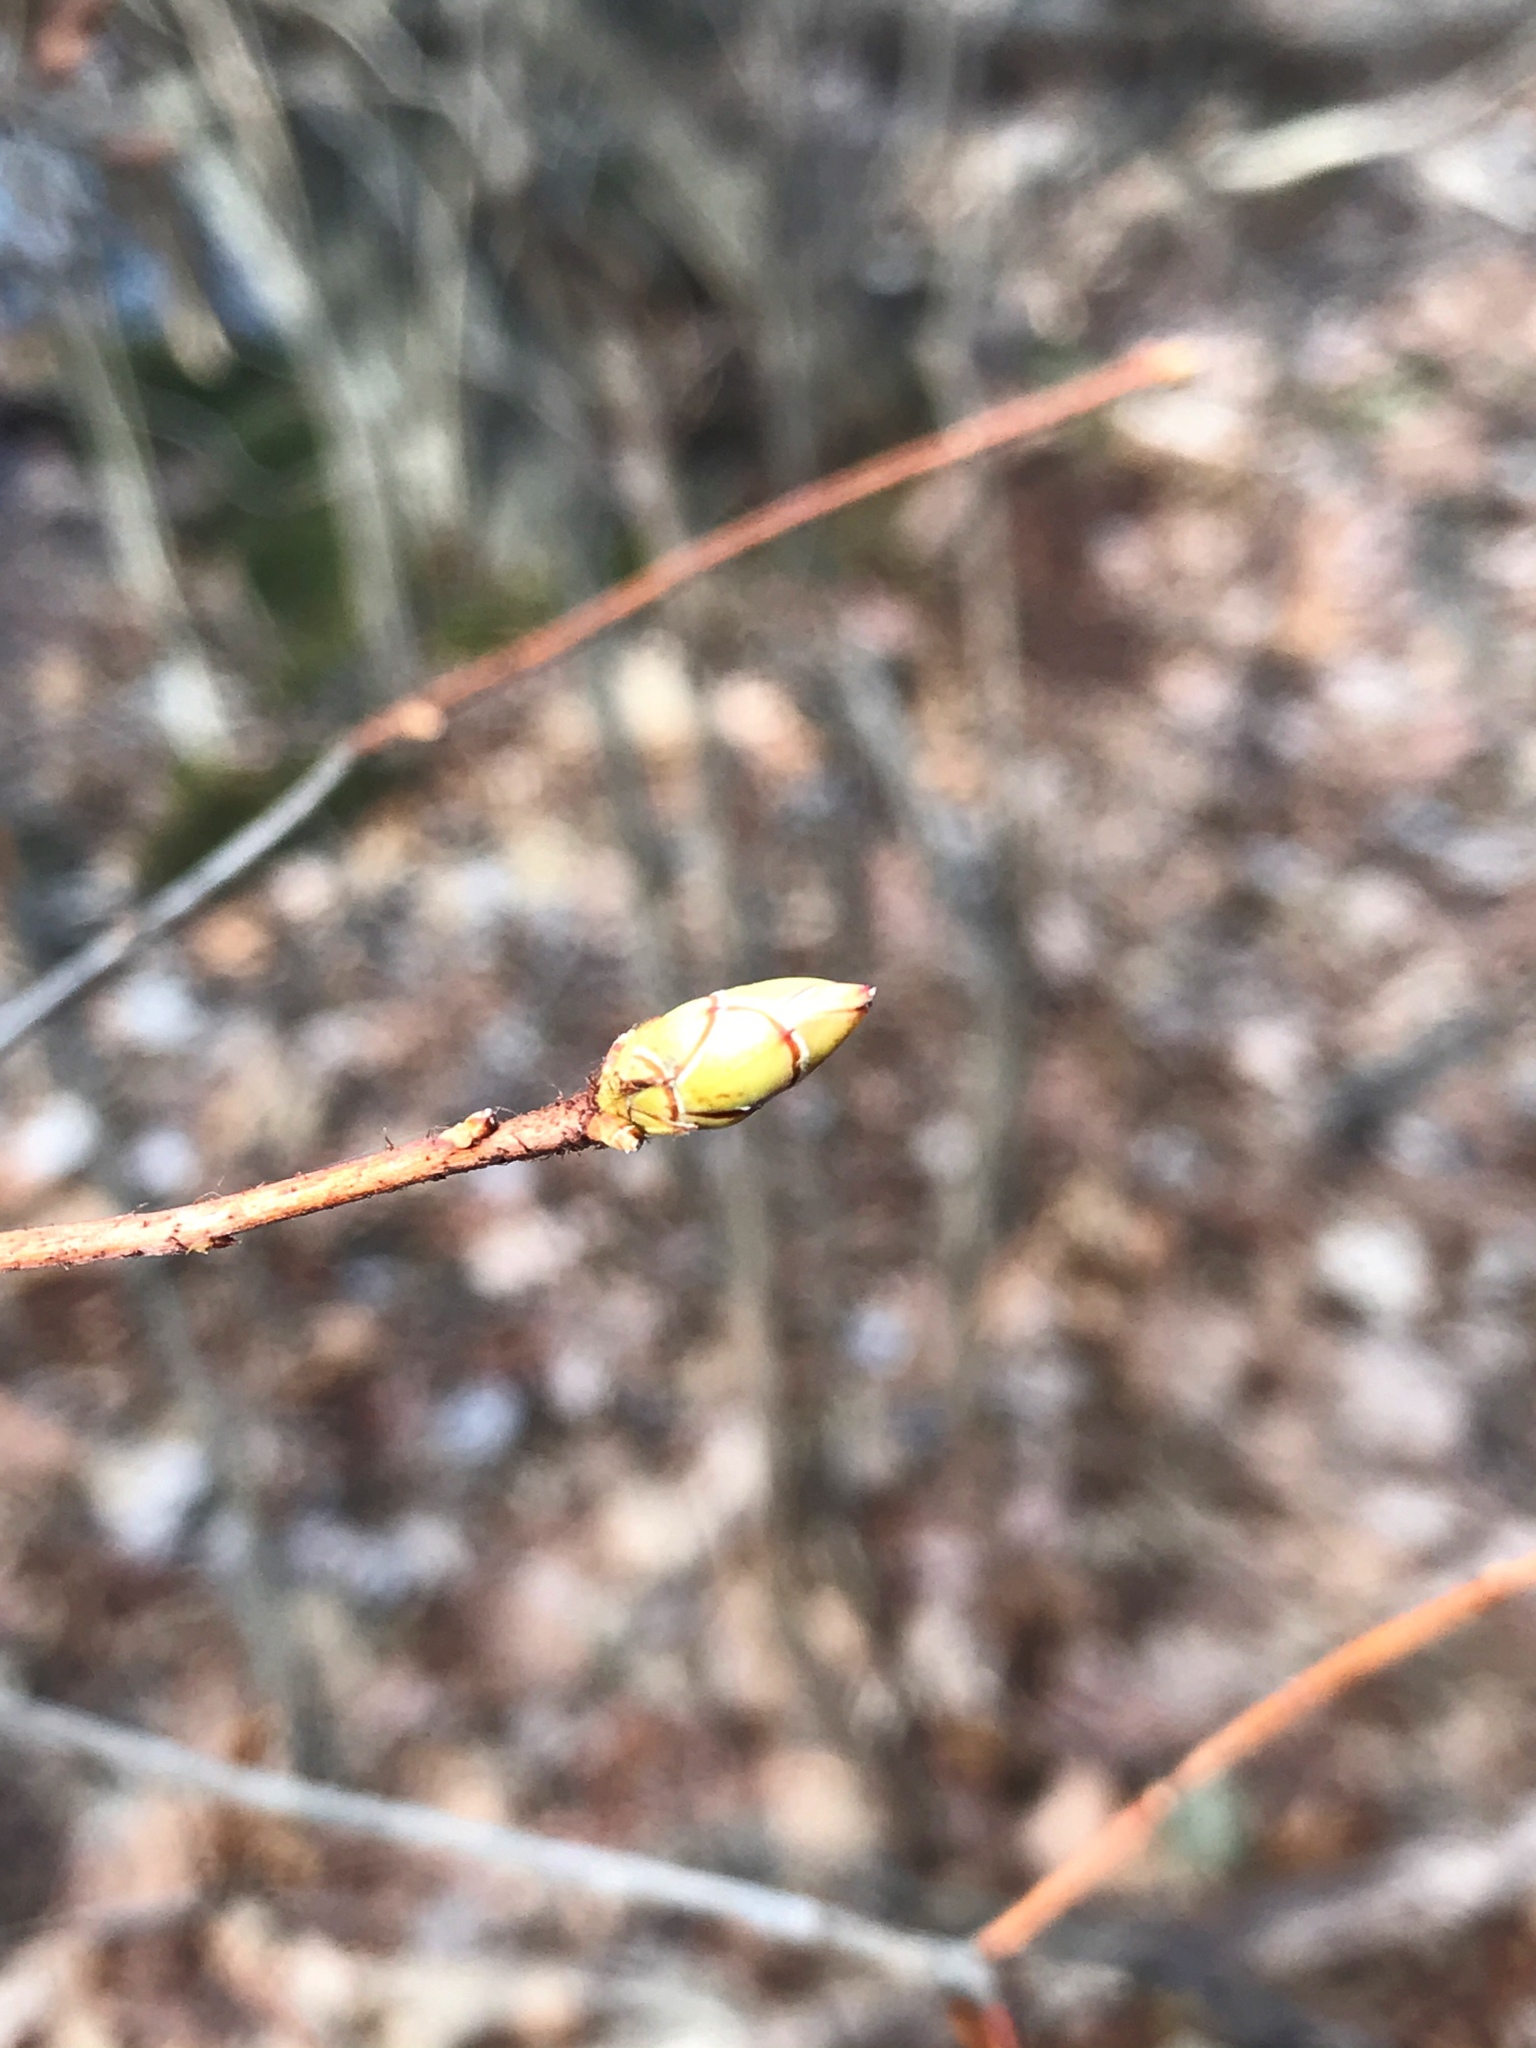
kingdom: Plantae
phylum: Tracheophyta
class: Magnoliopsida
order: Ericales
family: Ericaceae
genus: Rhododendron
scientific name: Rhododendron viscosum
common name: Clammy azalea
